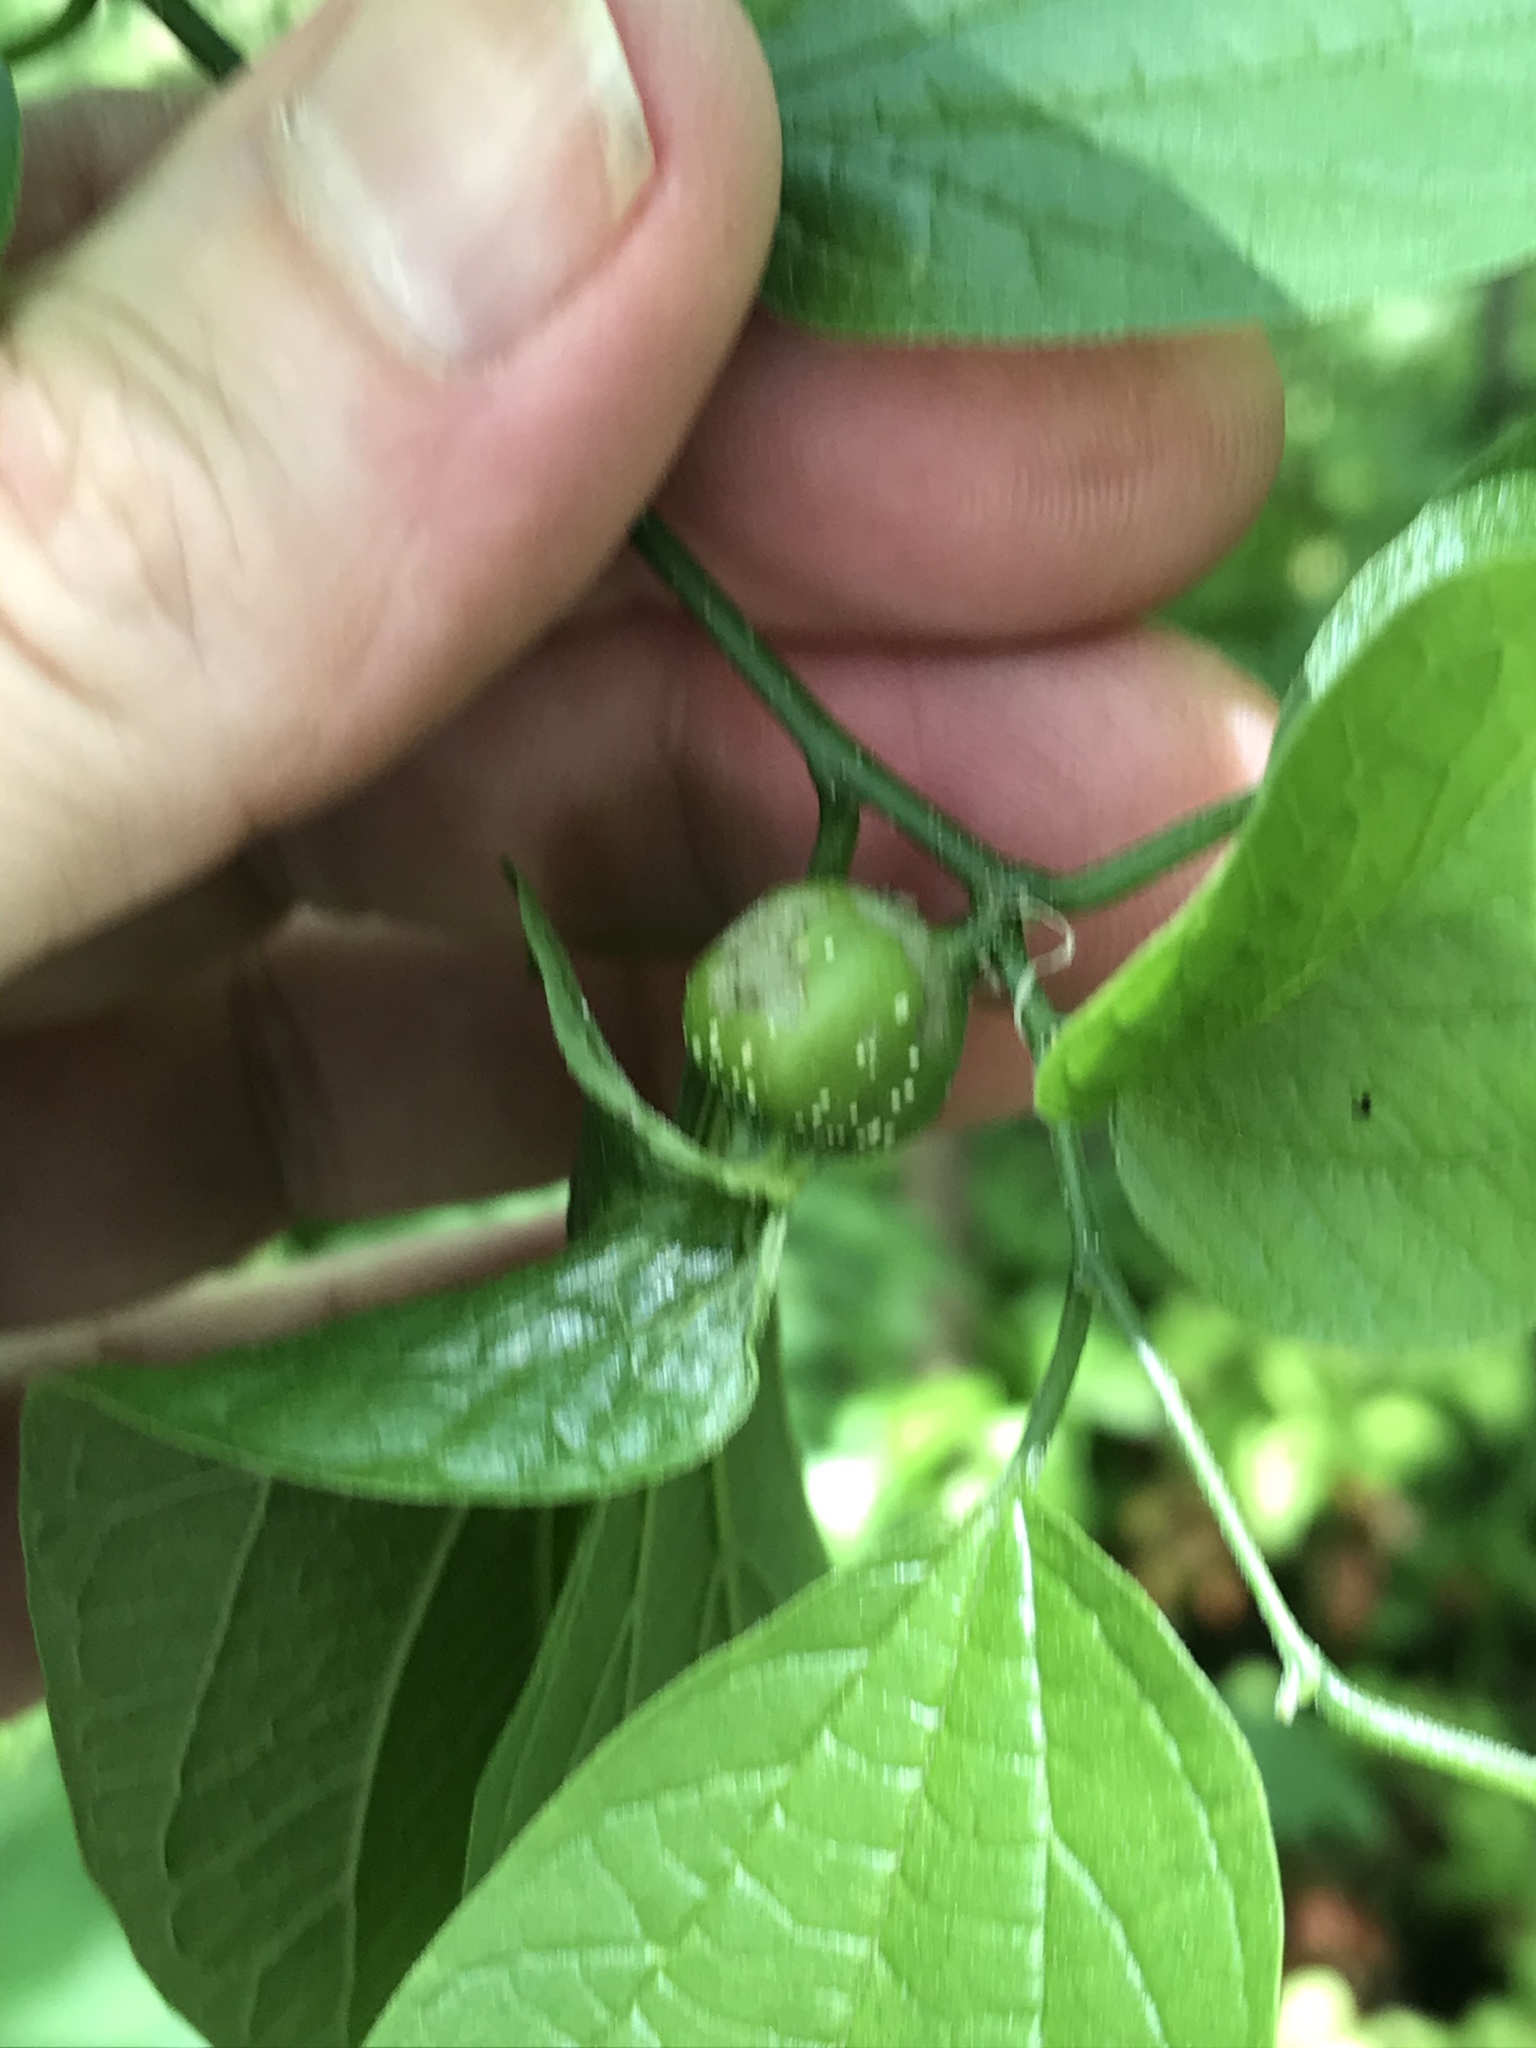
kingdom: Animalia
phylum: Arthropoda
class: Insecta
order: Hemiptera
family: Aphalaridae
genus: Pachypsylla
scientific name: Pachypsylla venusta
